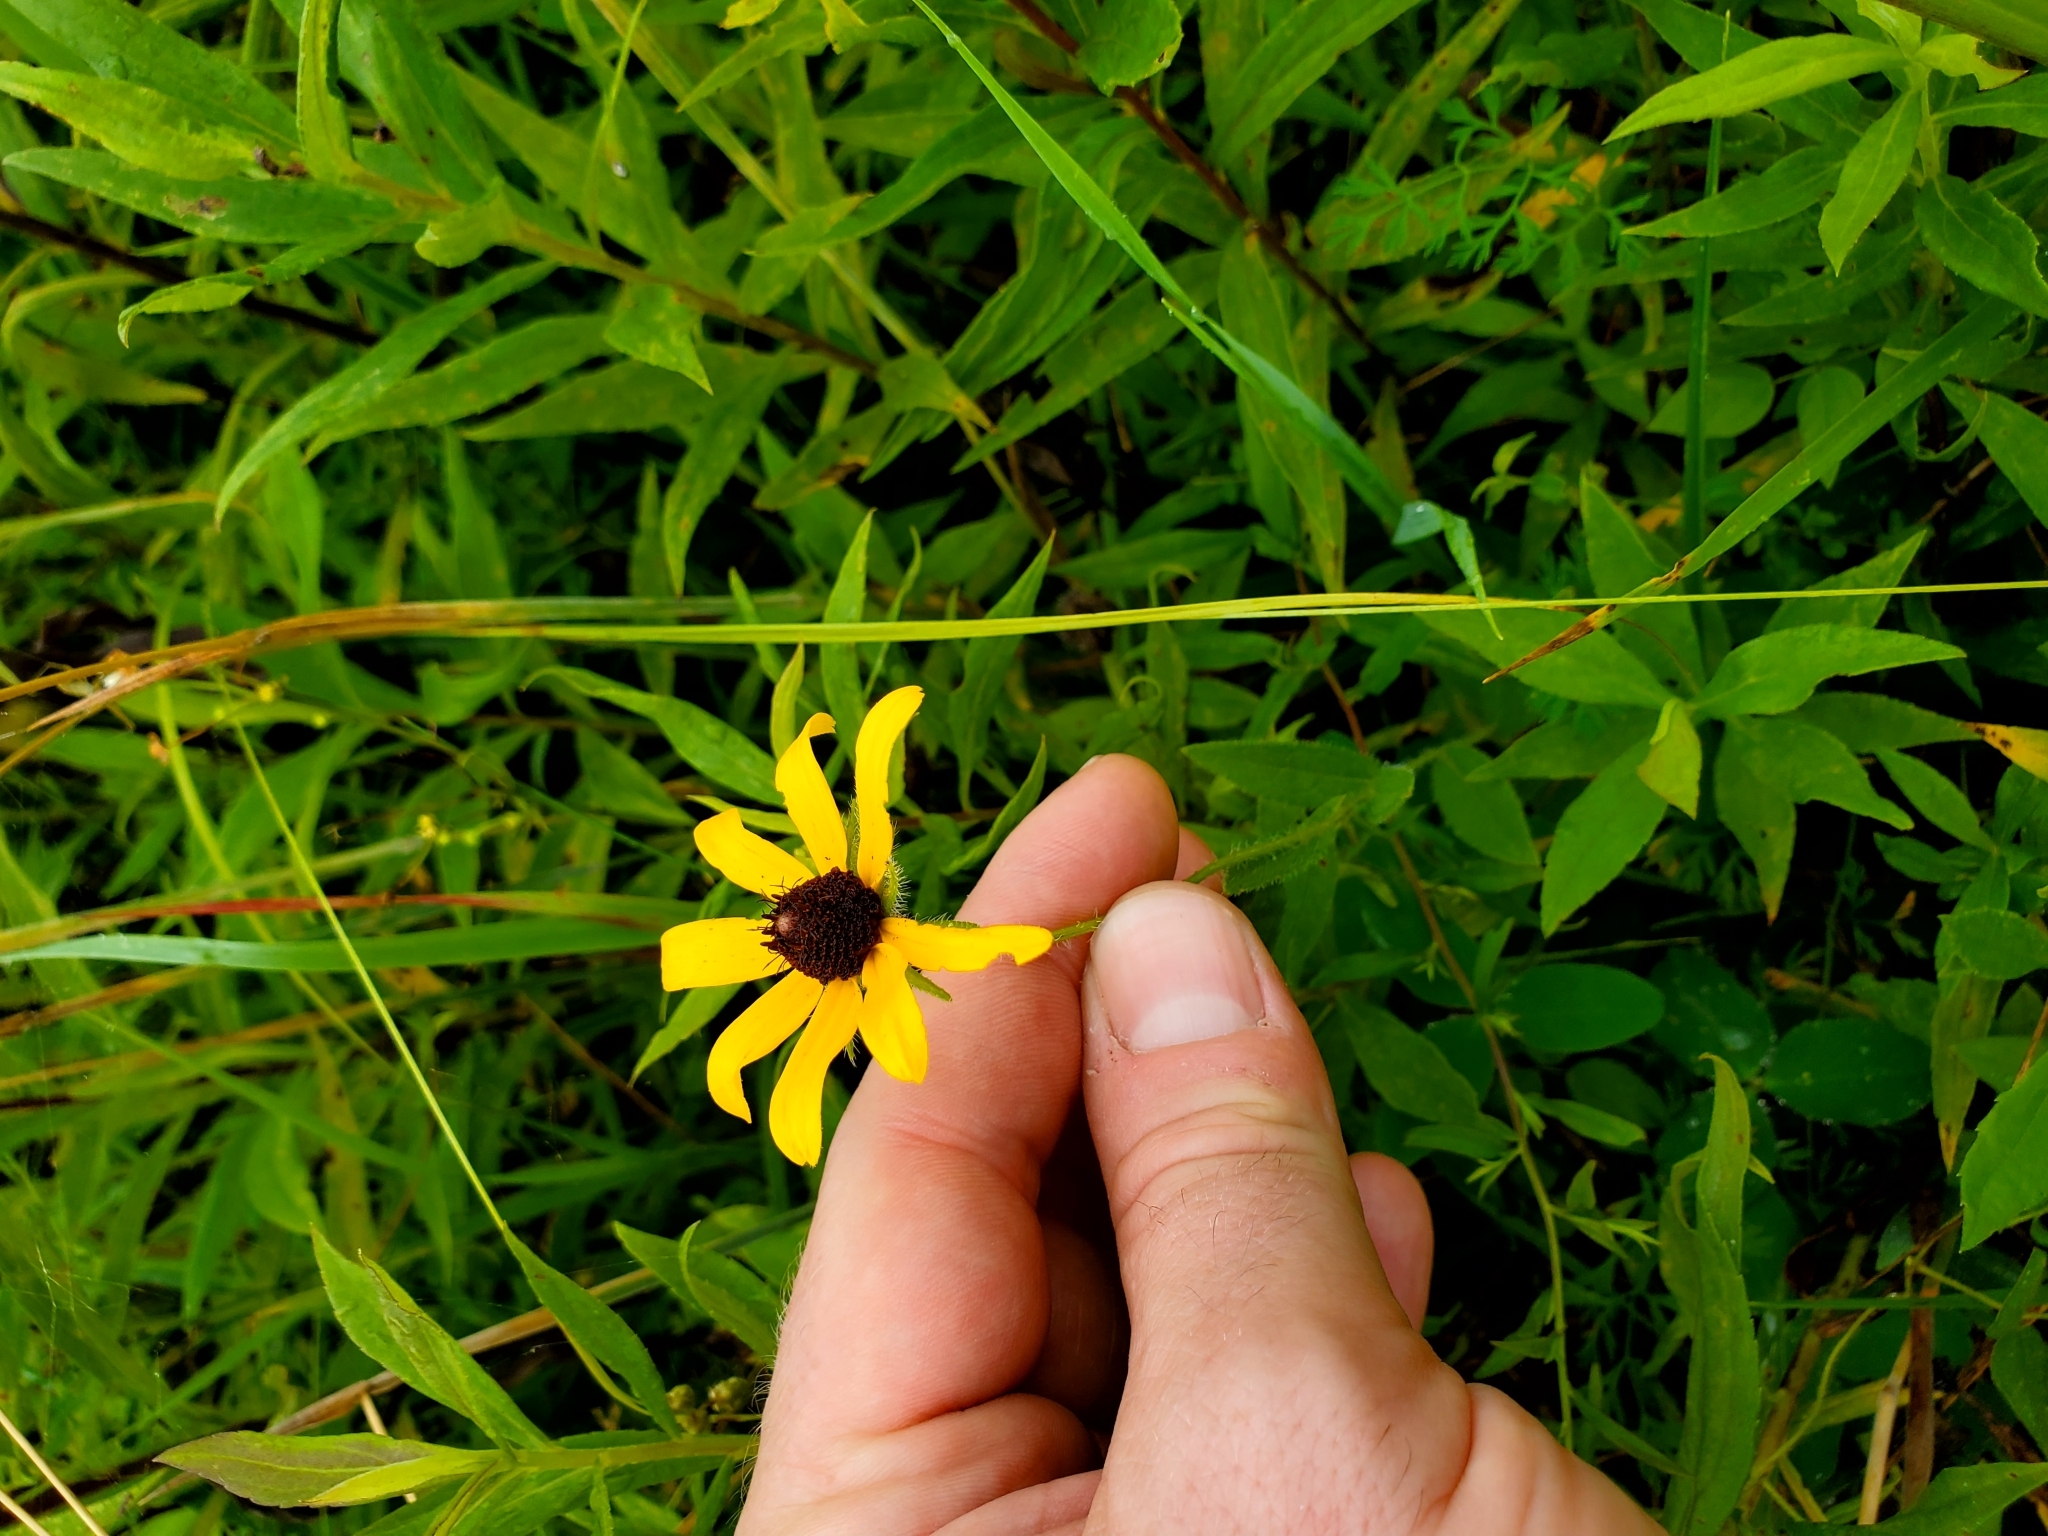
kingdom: Plantae
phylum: Tracheophyta
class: Magnoliopsida
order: Asterales
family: Asteraceae
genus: Rudbeckia
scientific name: Rudbeckia hirta
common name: Black-eyed-susan
